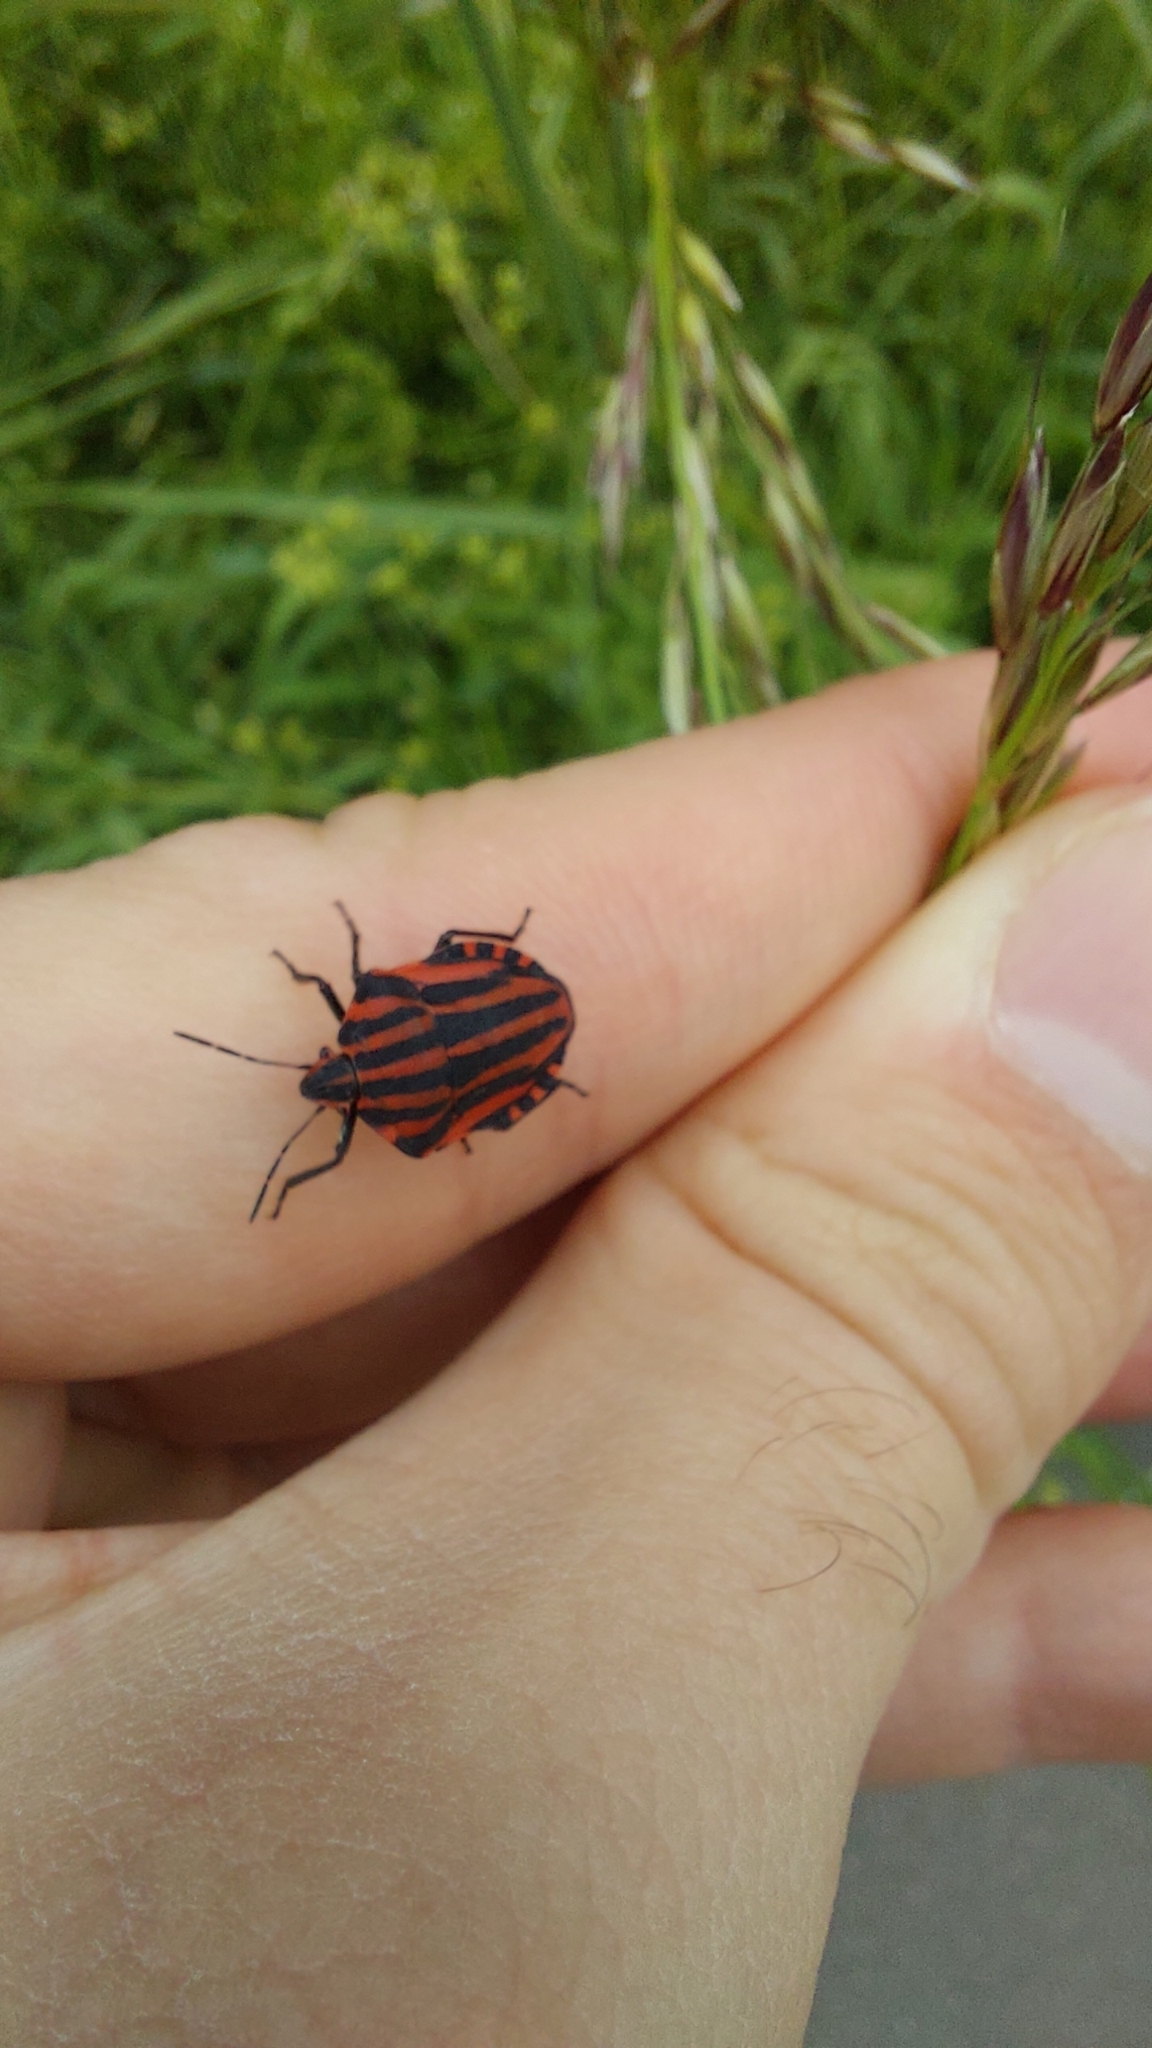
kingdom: Animalia
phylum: Arthropoda
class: Insecta
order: Hemiptera
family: Pentatomidae
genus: Graphosoma
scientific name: Graphosoma italicum
